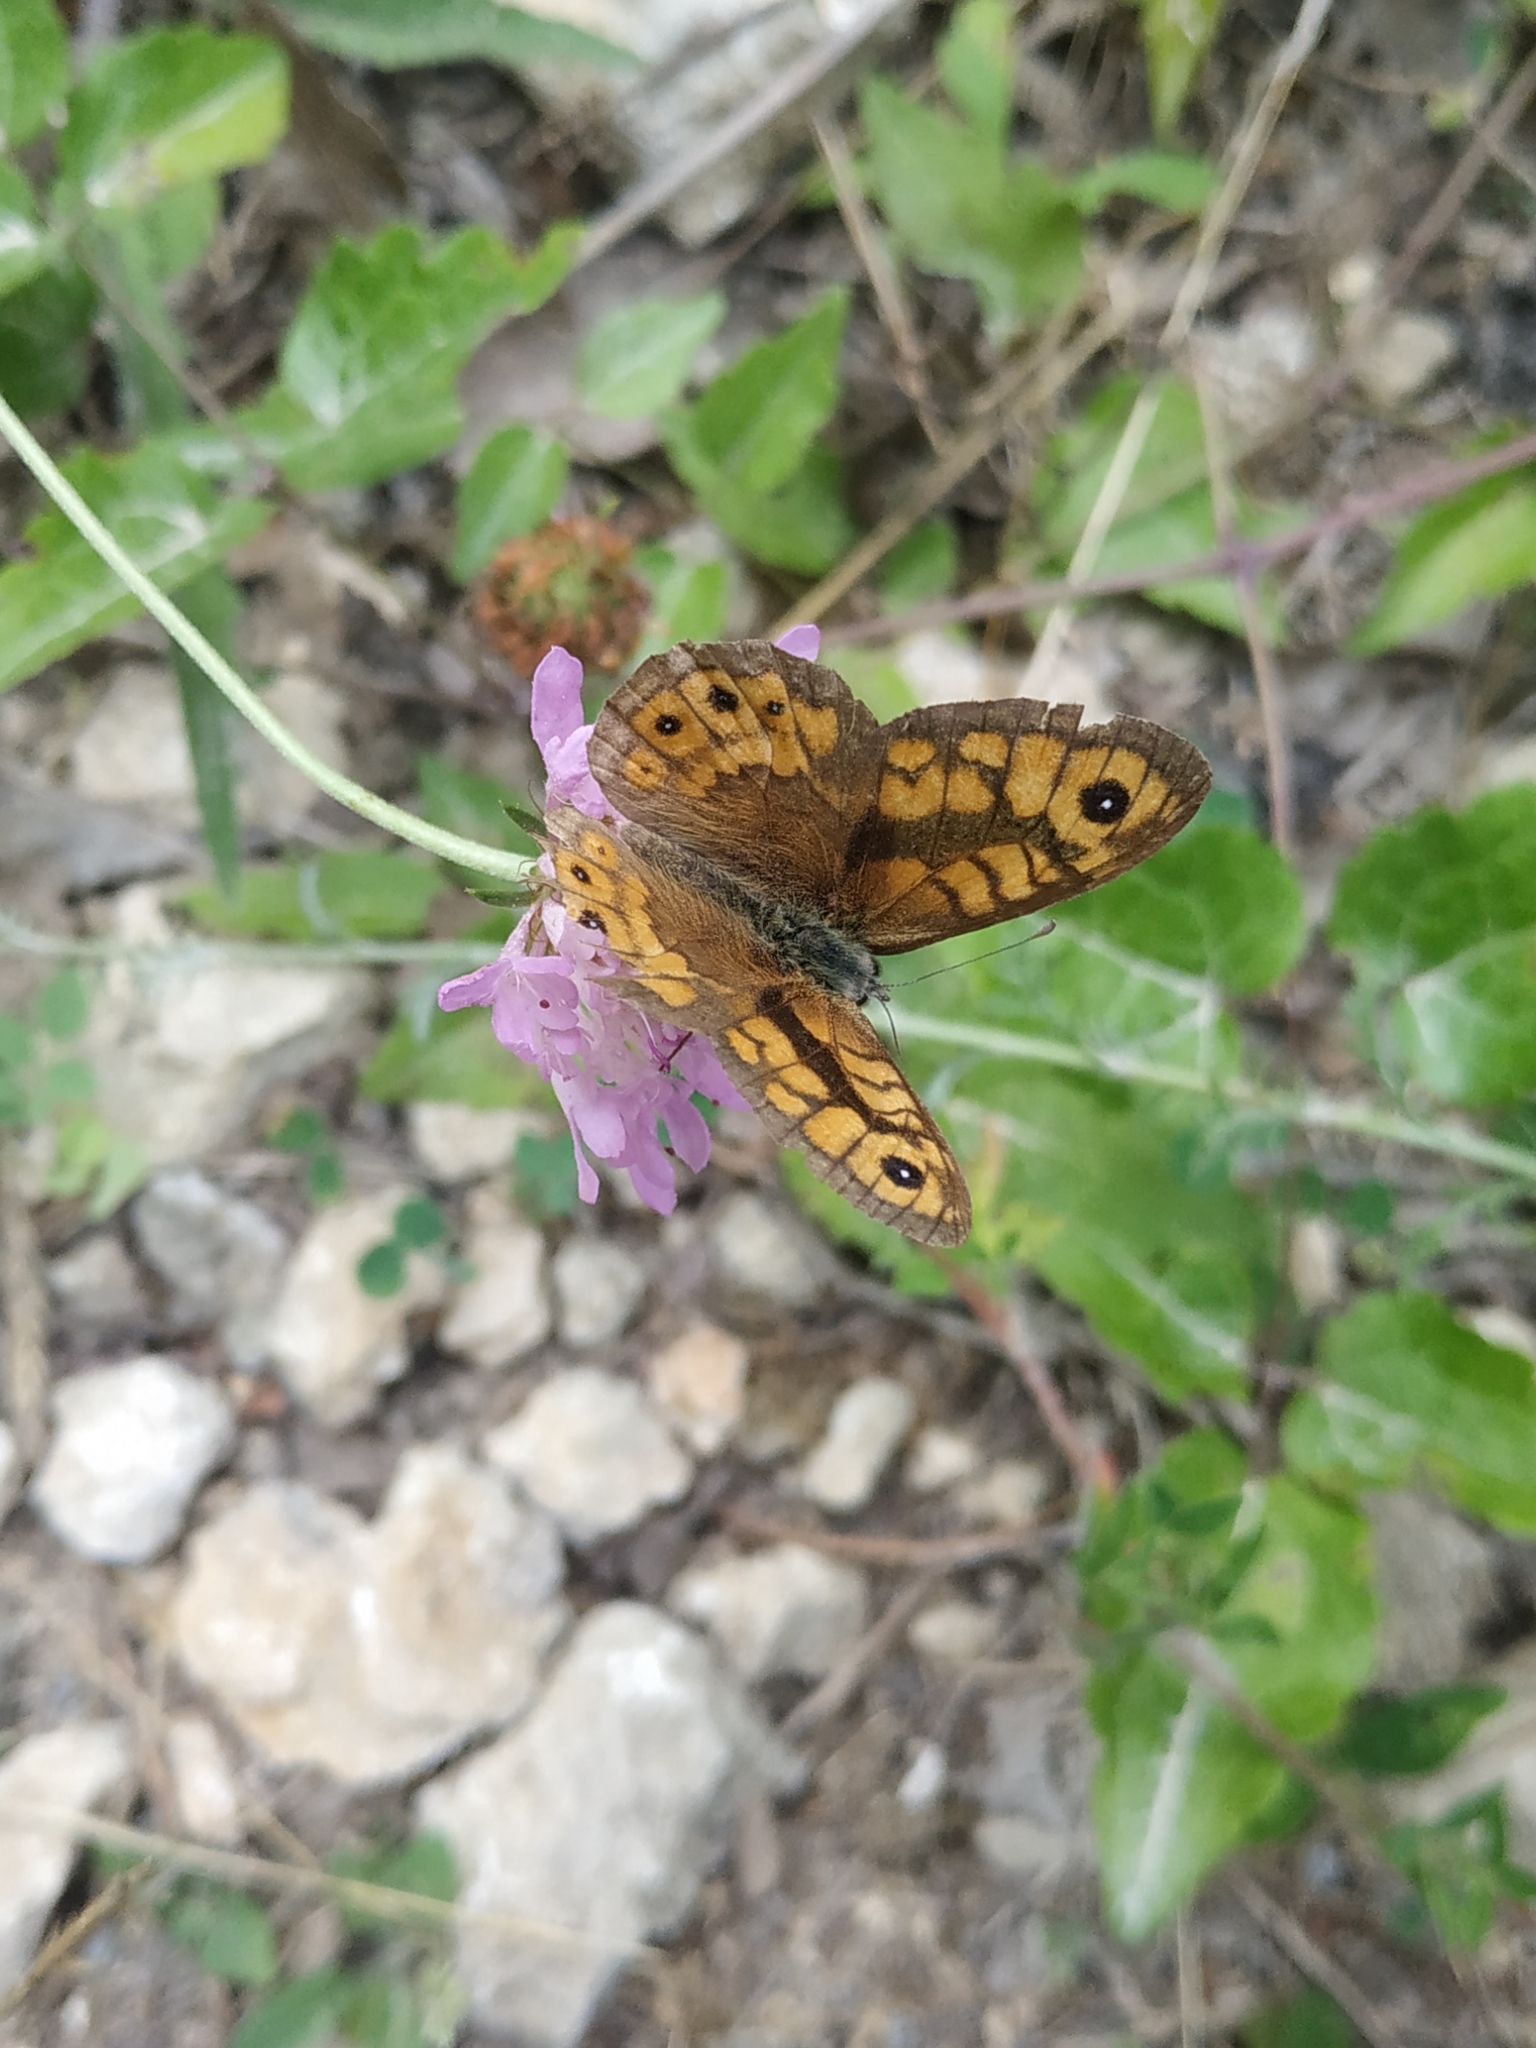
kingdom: Animalia
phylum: Arthropoda
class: Insecta
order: Lepidoptera
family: Nymphalidae
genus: Pararge
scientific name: Pararge Lasiommata megera
